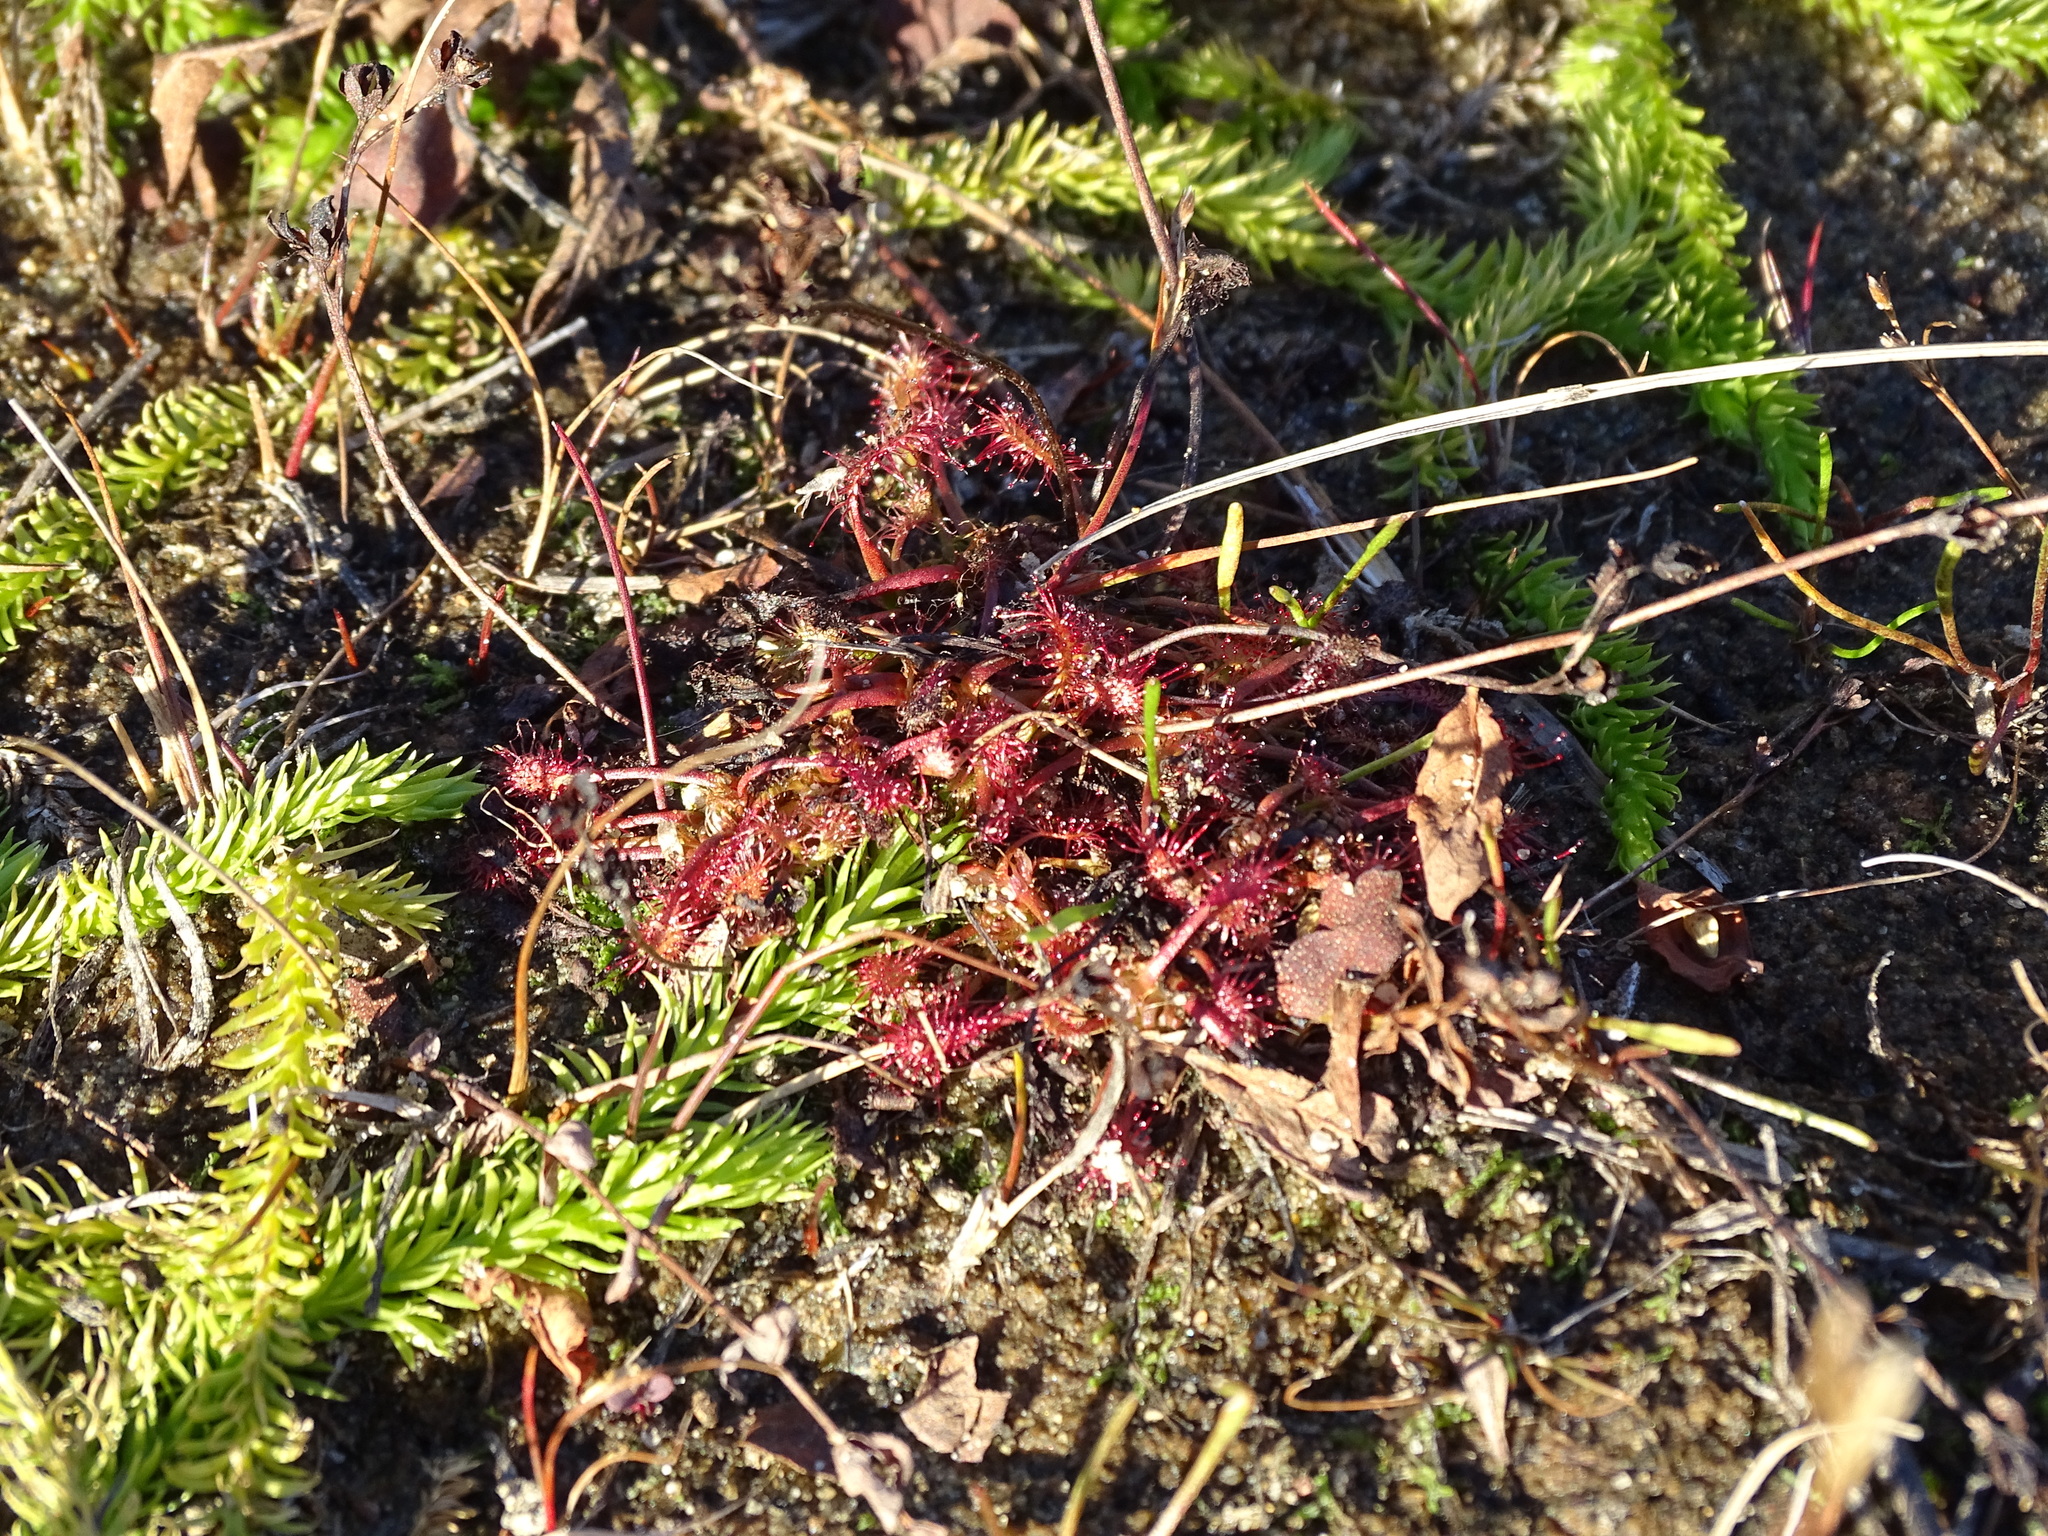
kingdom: Plantae
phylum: Tracheophyta
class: Magnoliopsida
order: Caryophyllales
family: Droseraceae
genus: Drosera
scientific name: Drosera intermedia
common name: Oblong-leaved sundew
